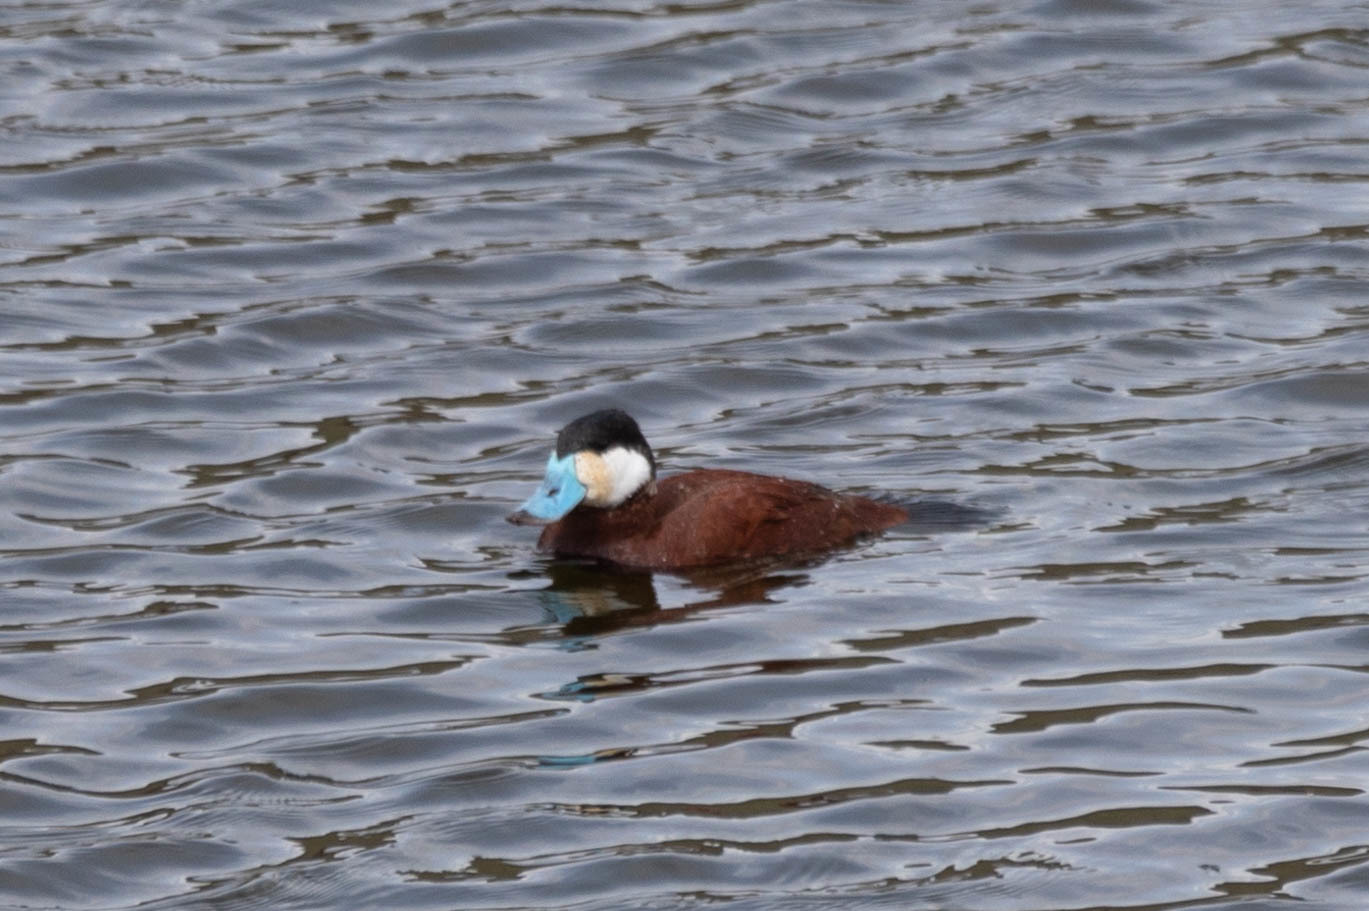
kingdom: Animalia
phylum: Chordata
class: Aves
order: Anseriformes
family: Anatidae
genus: Oxyura
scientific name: Oxyura jamaicensis
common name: Ruddy duck
